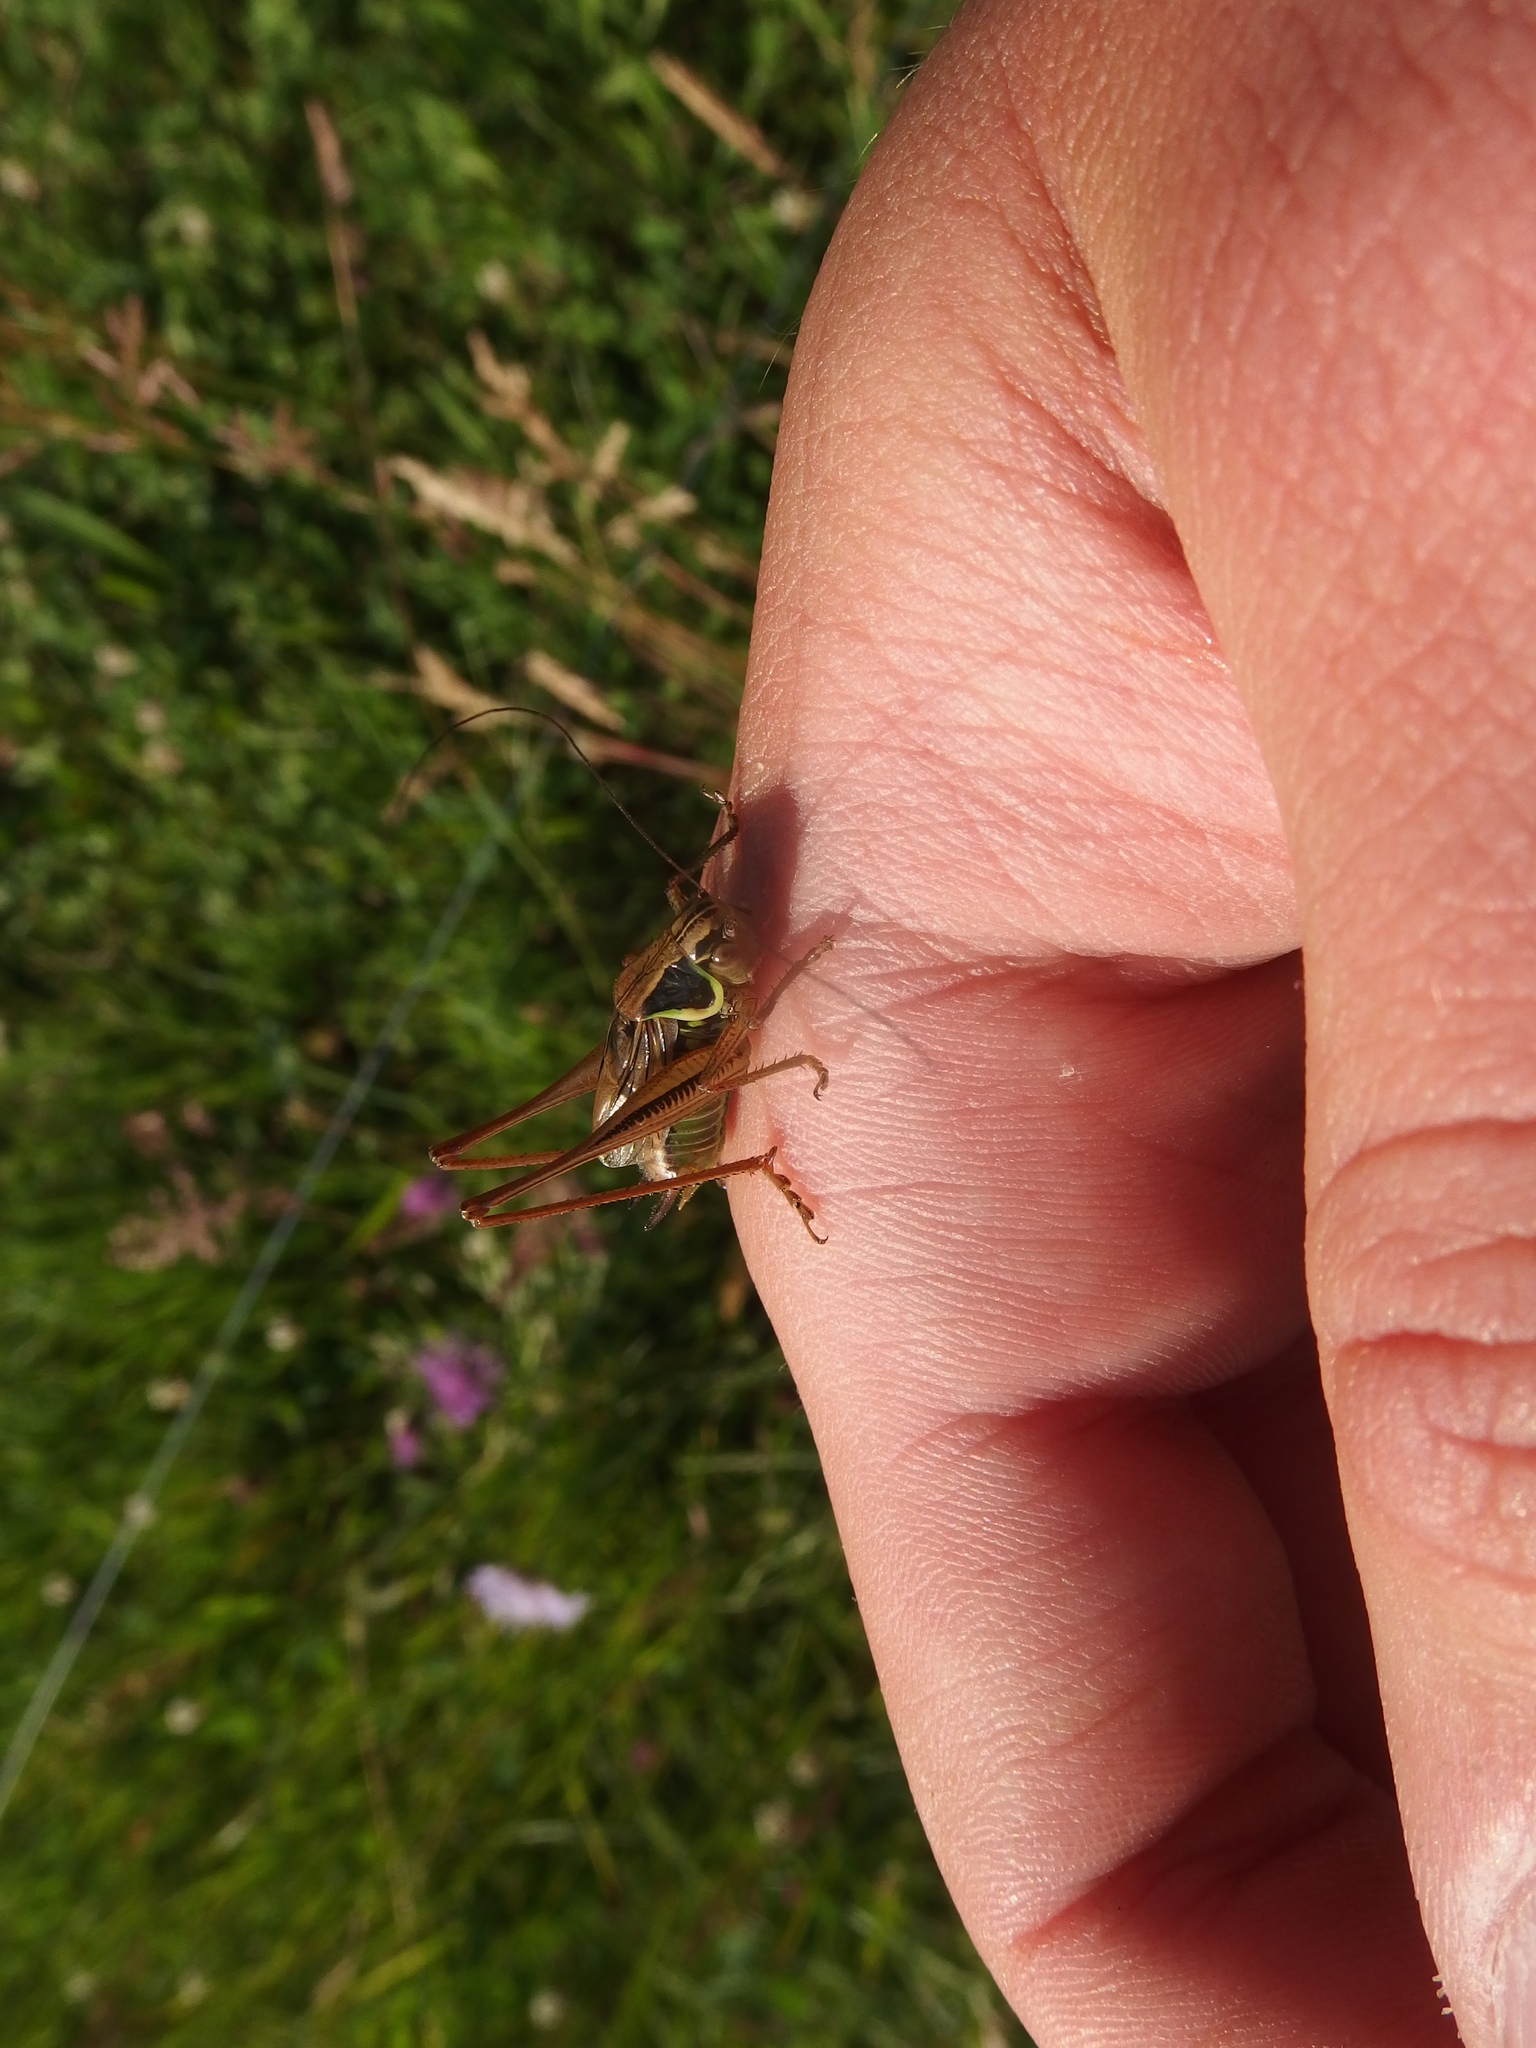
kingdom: Animalia
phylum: Arthropoda
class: Insecta
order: Orthoptera
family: Tettigoniidae
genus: Roeseliana
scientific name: Roeseliana roeselii
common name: Roesel's bush cricket
